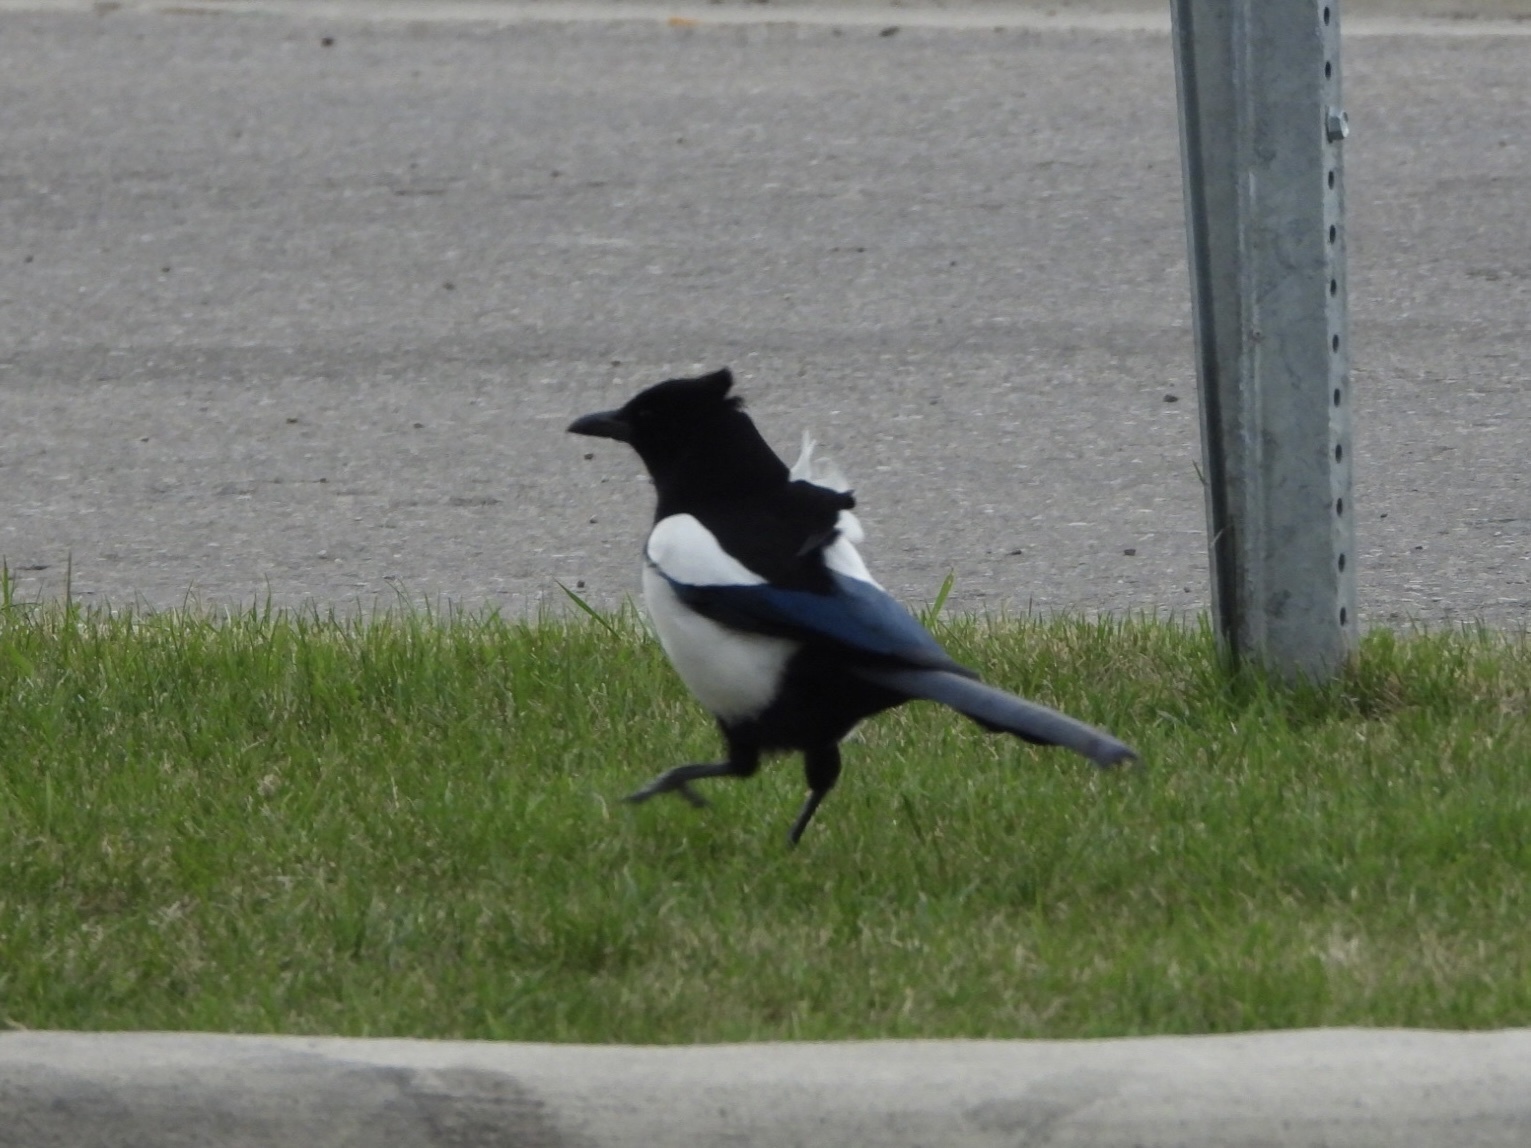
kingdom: Animalia
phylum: Chordata
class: Aves
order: Passeriformes
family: Corvidae
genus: Pica
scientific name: Pica hudsonia
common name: Black-billed magpie
